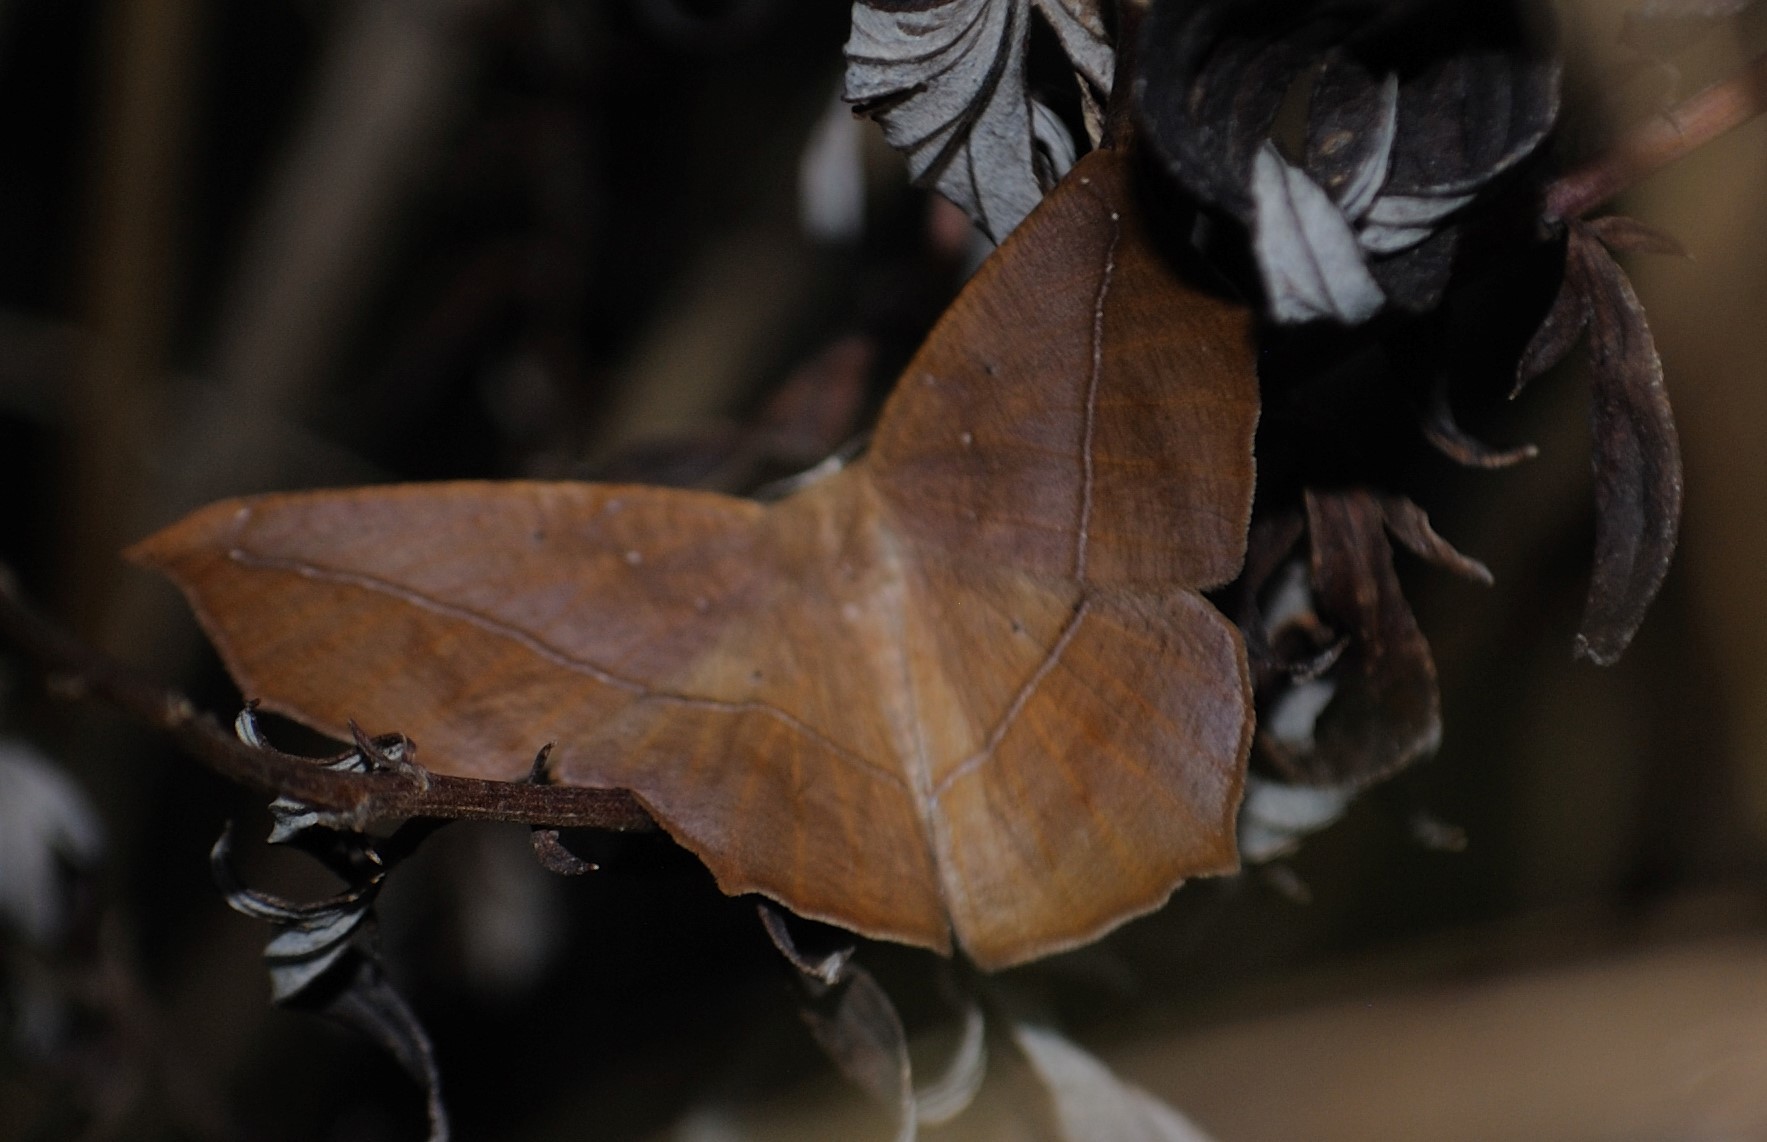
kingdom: Animalia
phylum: Arthropoda
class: Insecta
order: Lepidoptera
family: Geometridae
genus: Prochoerodes
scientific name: Prochoerodes lineola
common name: Large maple spanworm
